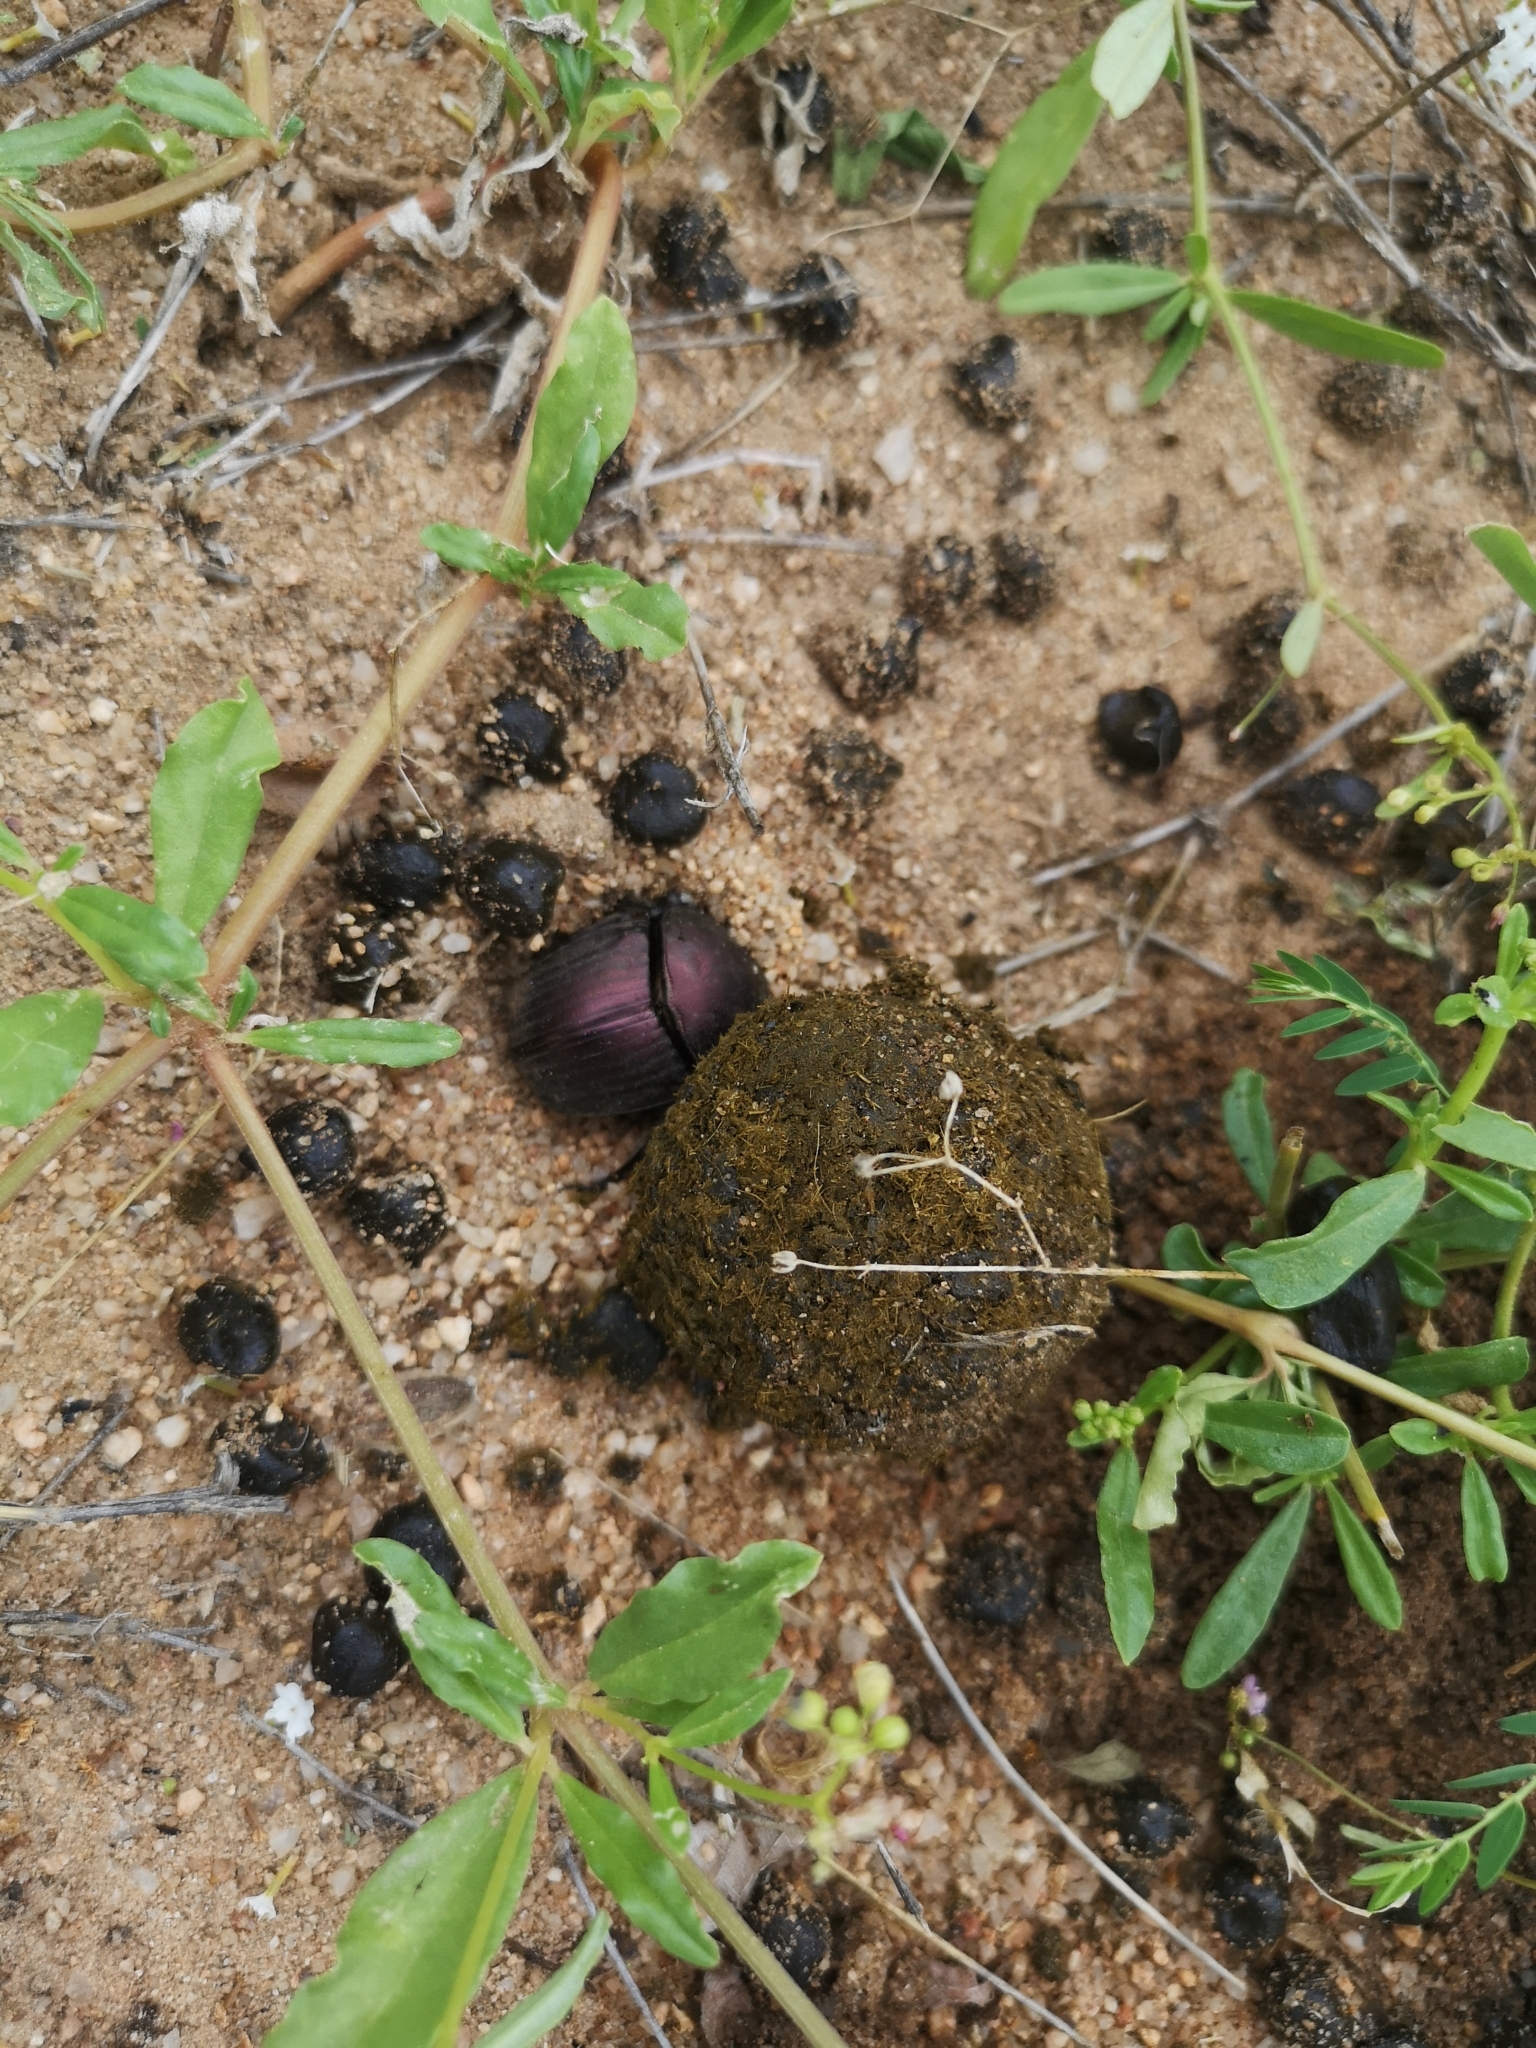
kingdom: Animalia
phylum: Arthropoda
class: Insecta
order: Coleoptera
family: Scarabaeidae
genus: Kheper
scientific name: Kheper nigroaeneus
